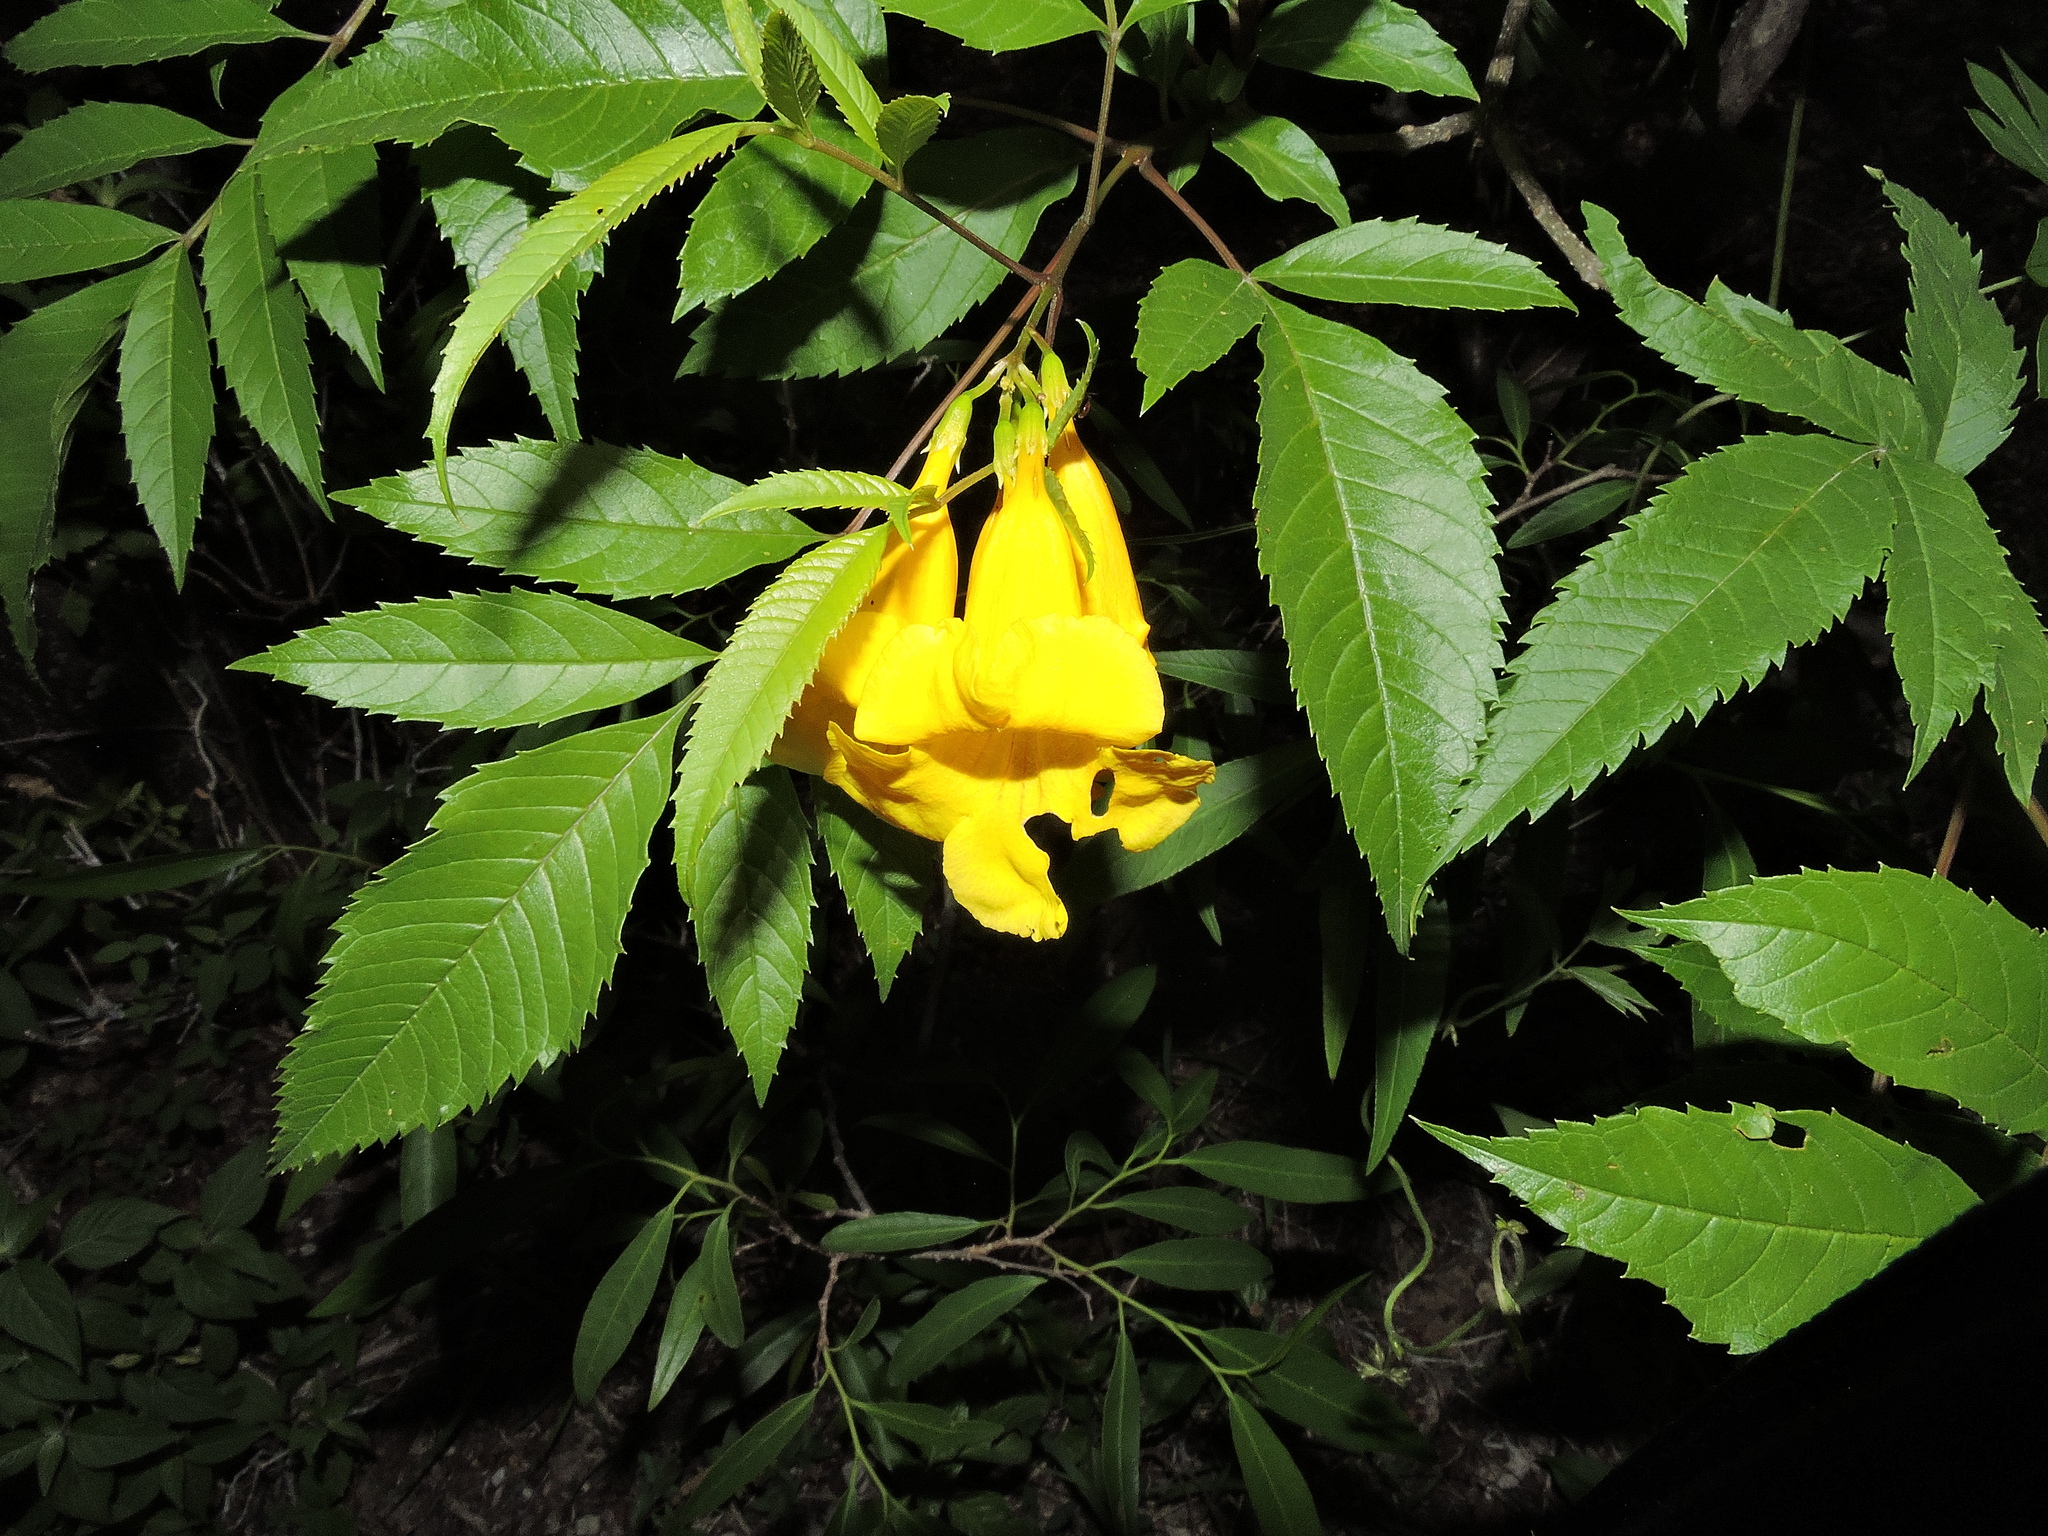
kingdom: Plantae
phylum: Tracheophyta
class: Magnoliopsida
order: Lamiales
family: Bignoniaceae
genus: Tecoma
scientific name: Tecoma stans
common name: Yellow trumpetbush
